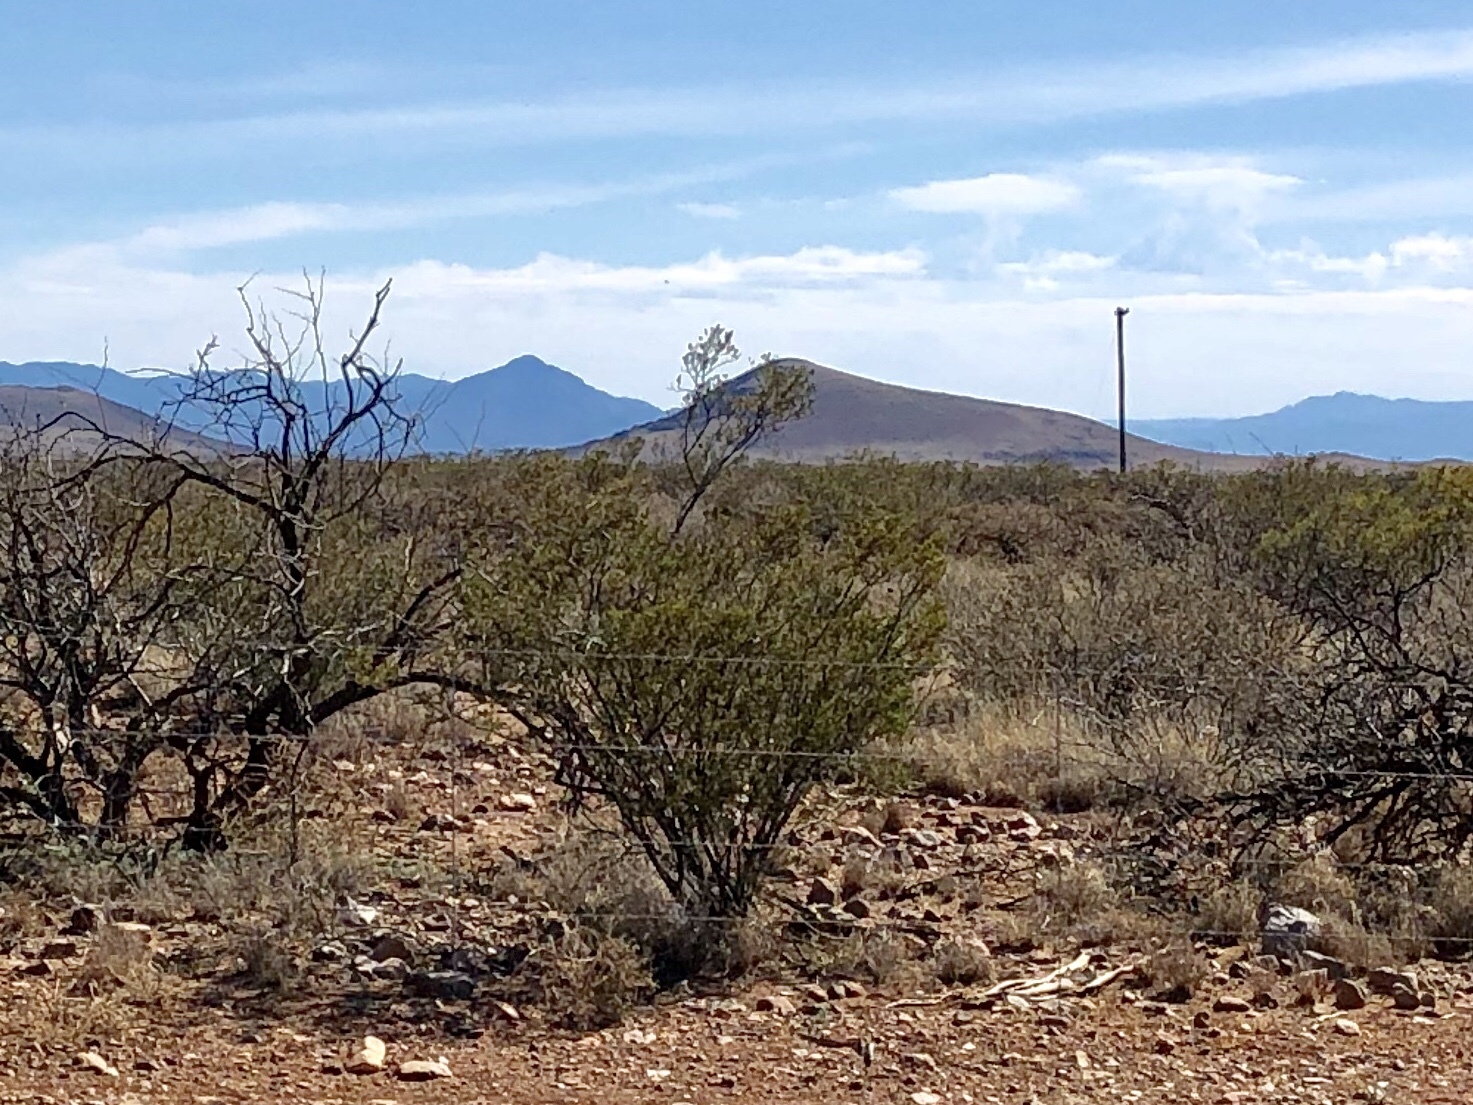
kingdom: Plantae
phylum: Tracheophyta
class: Magnoliopsida
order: Zygophyllales
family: Zygophyllaceae
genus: Larrea
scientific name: Larrea tridentata
